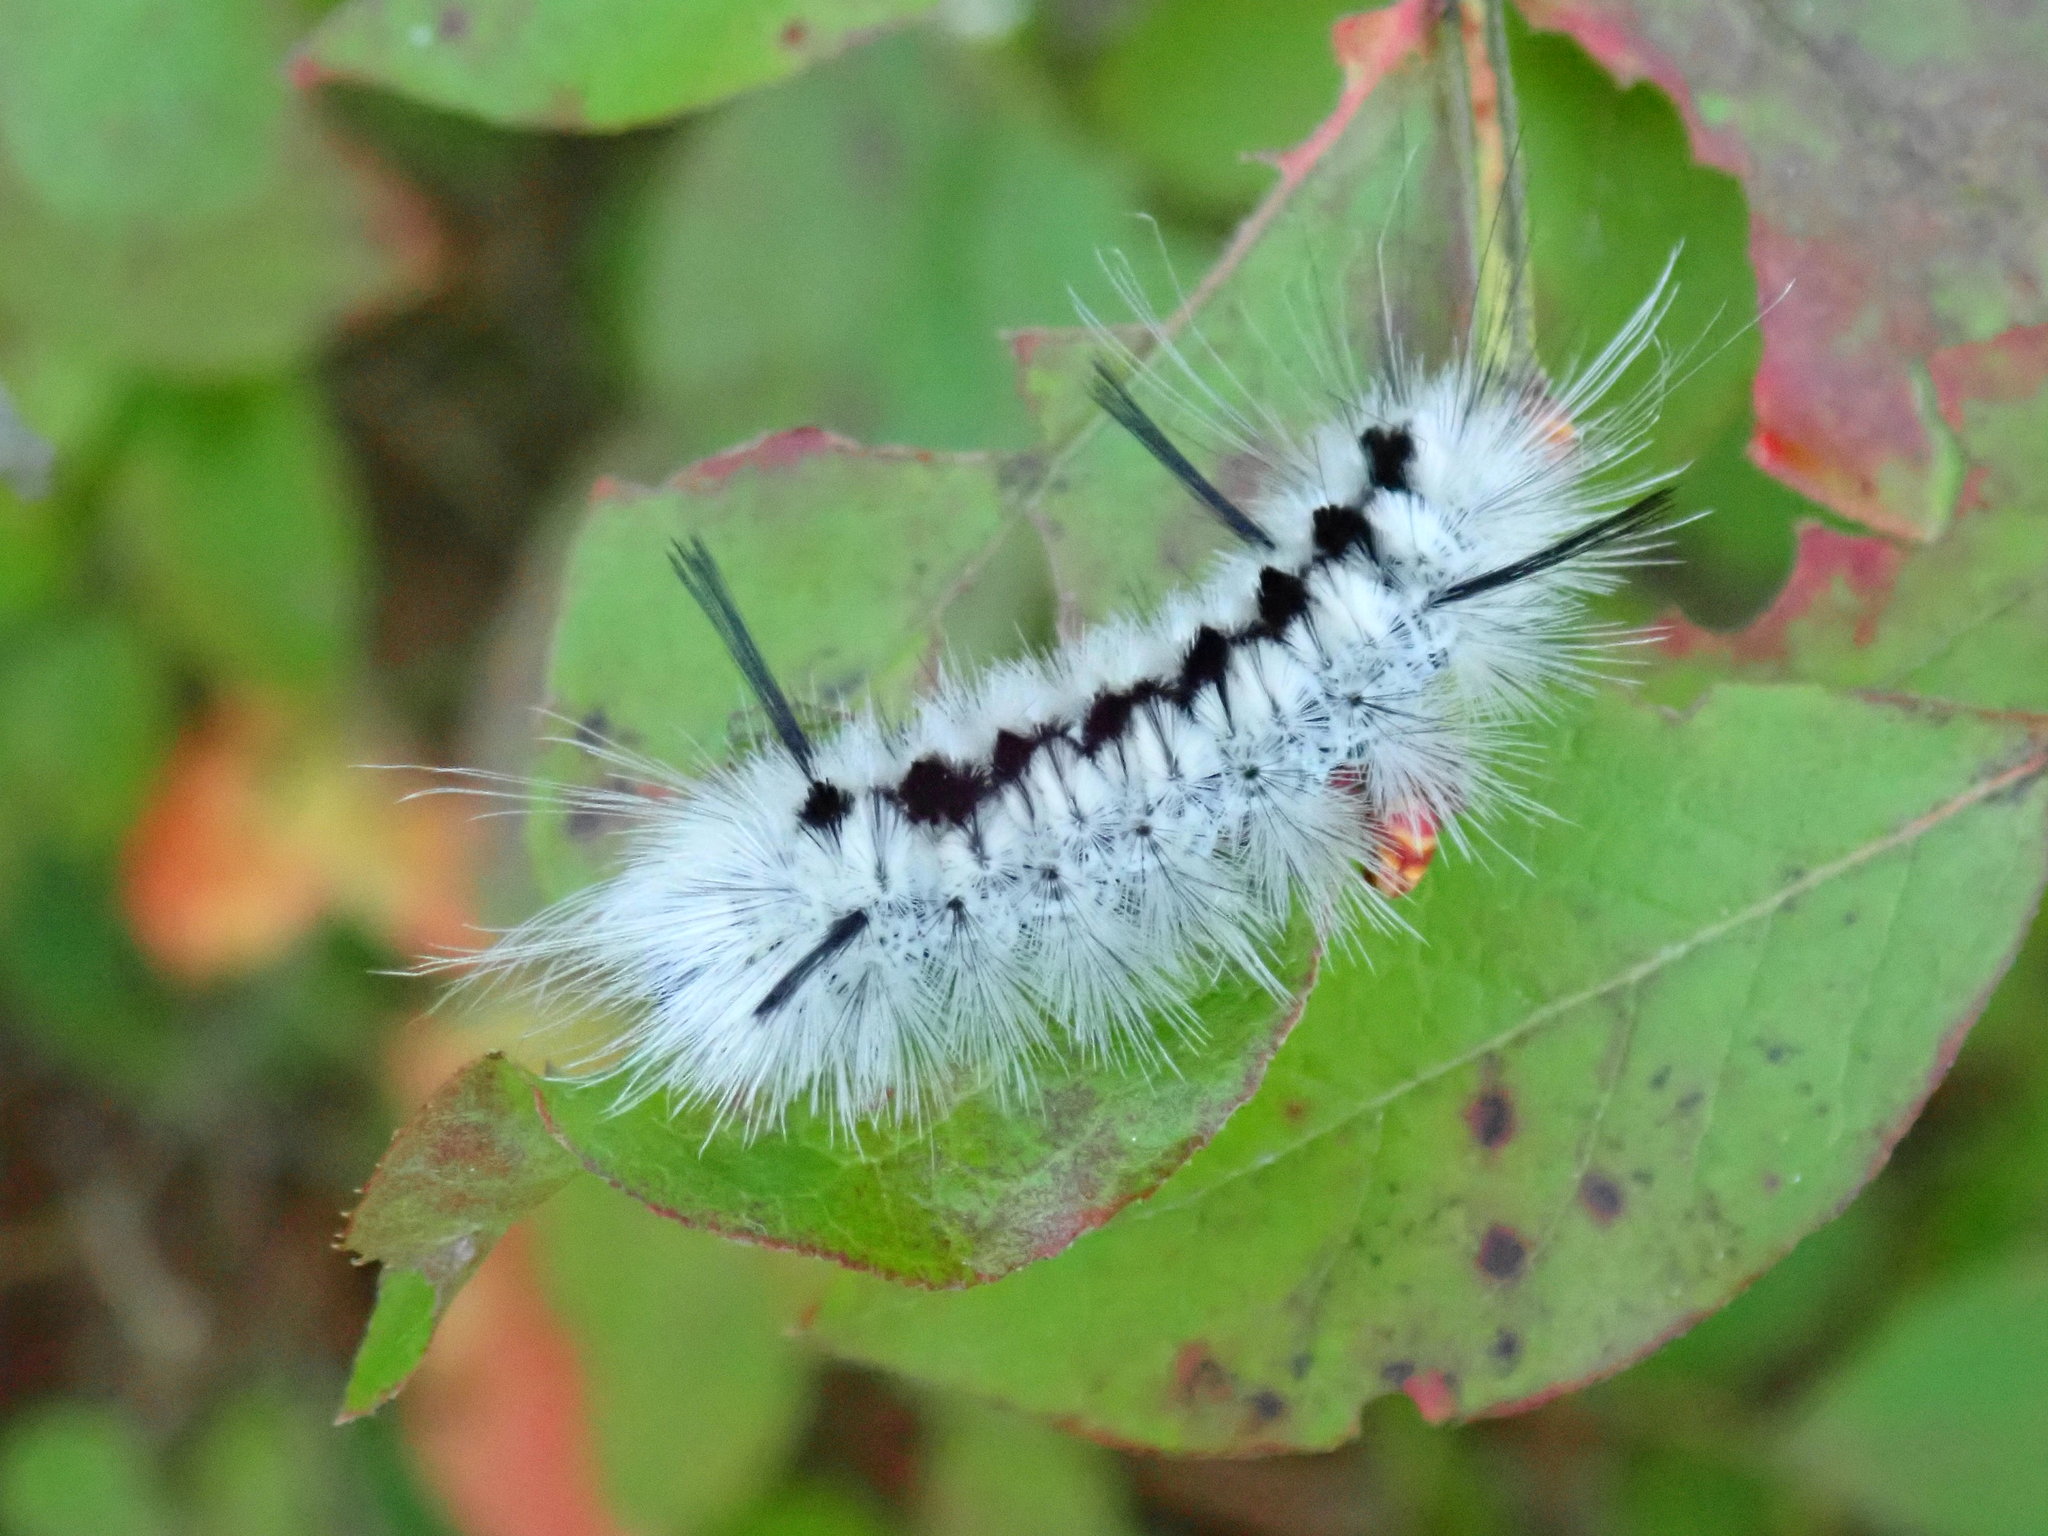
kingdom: Animalia
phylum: Arthropoda
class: Insecta
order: Lepidoptera
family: Erebidae
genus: Lophocampa
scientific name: Lophocampa caryae
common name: Hickory tussock moth
